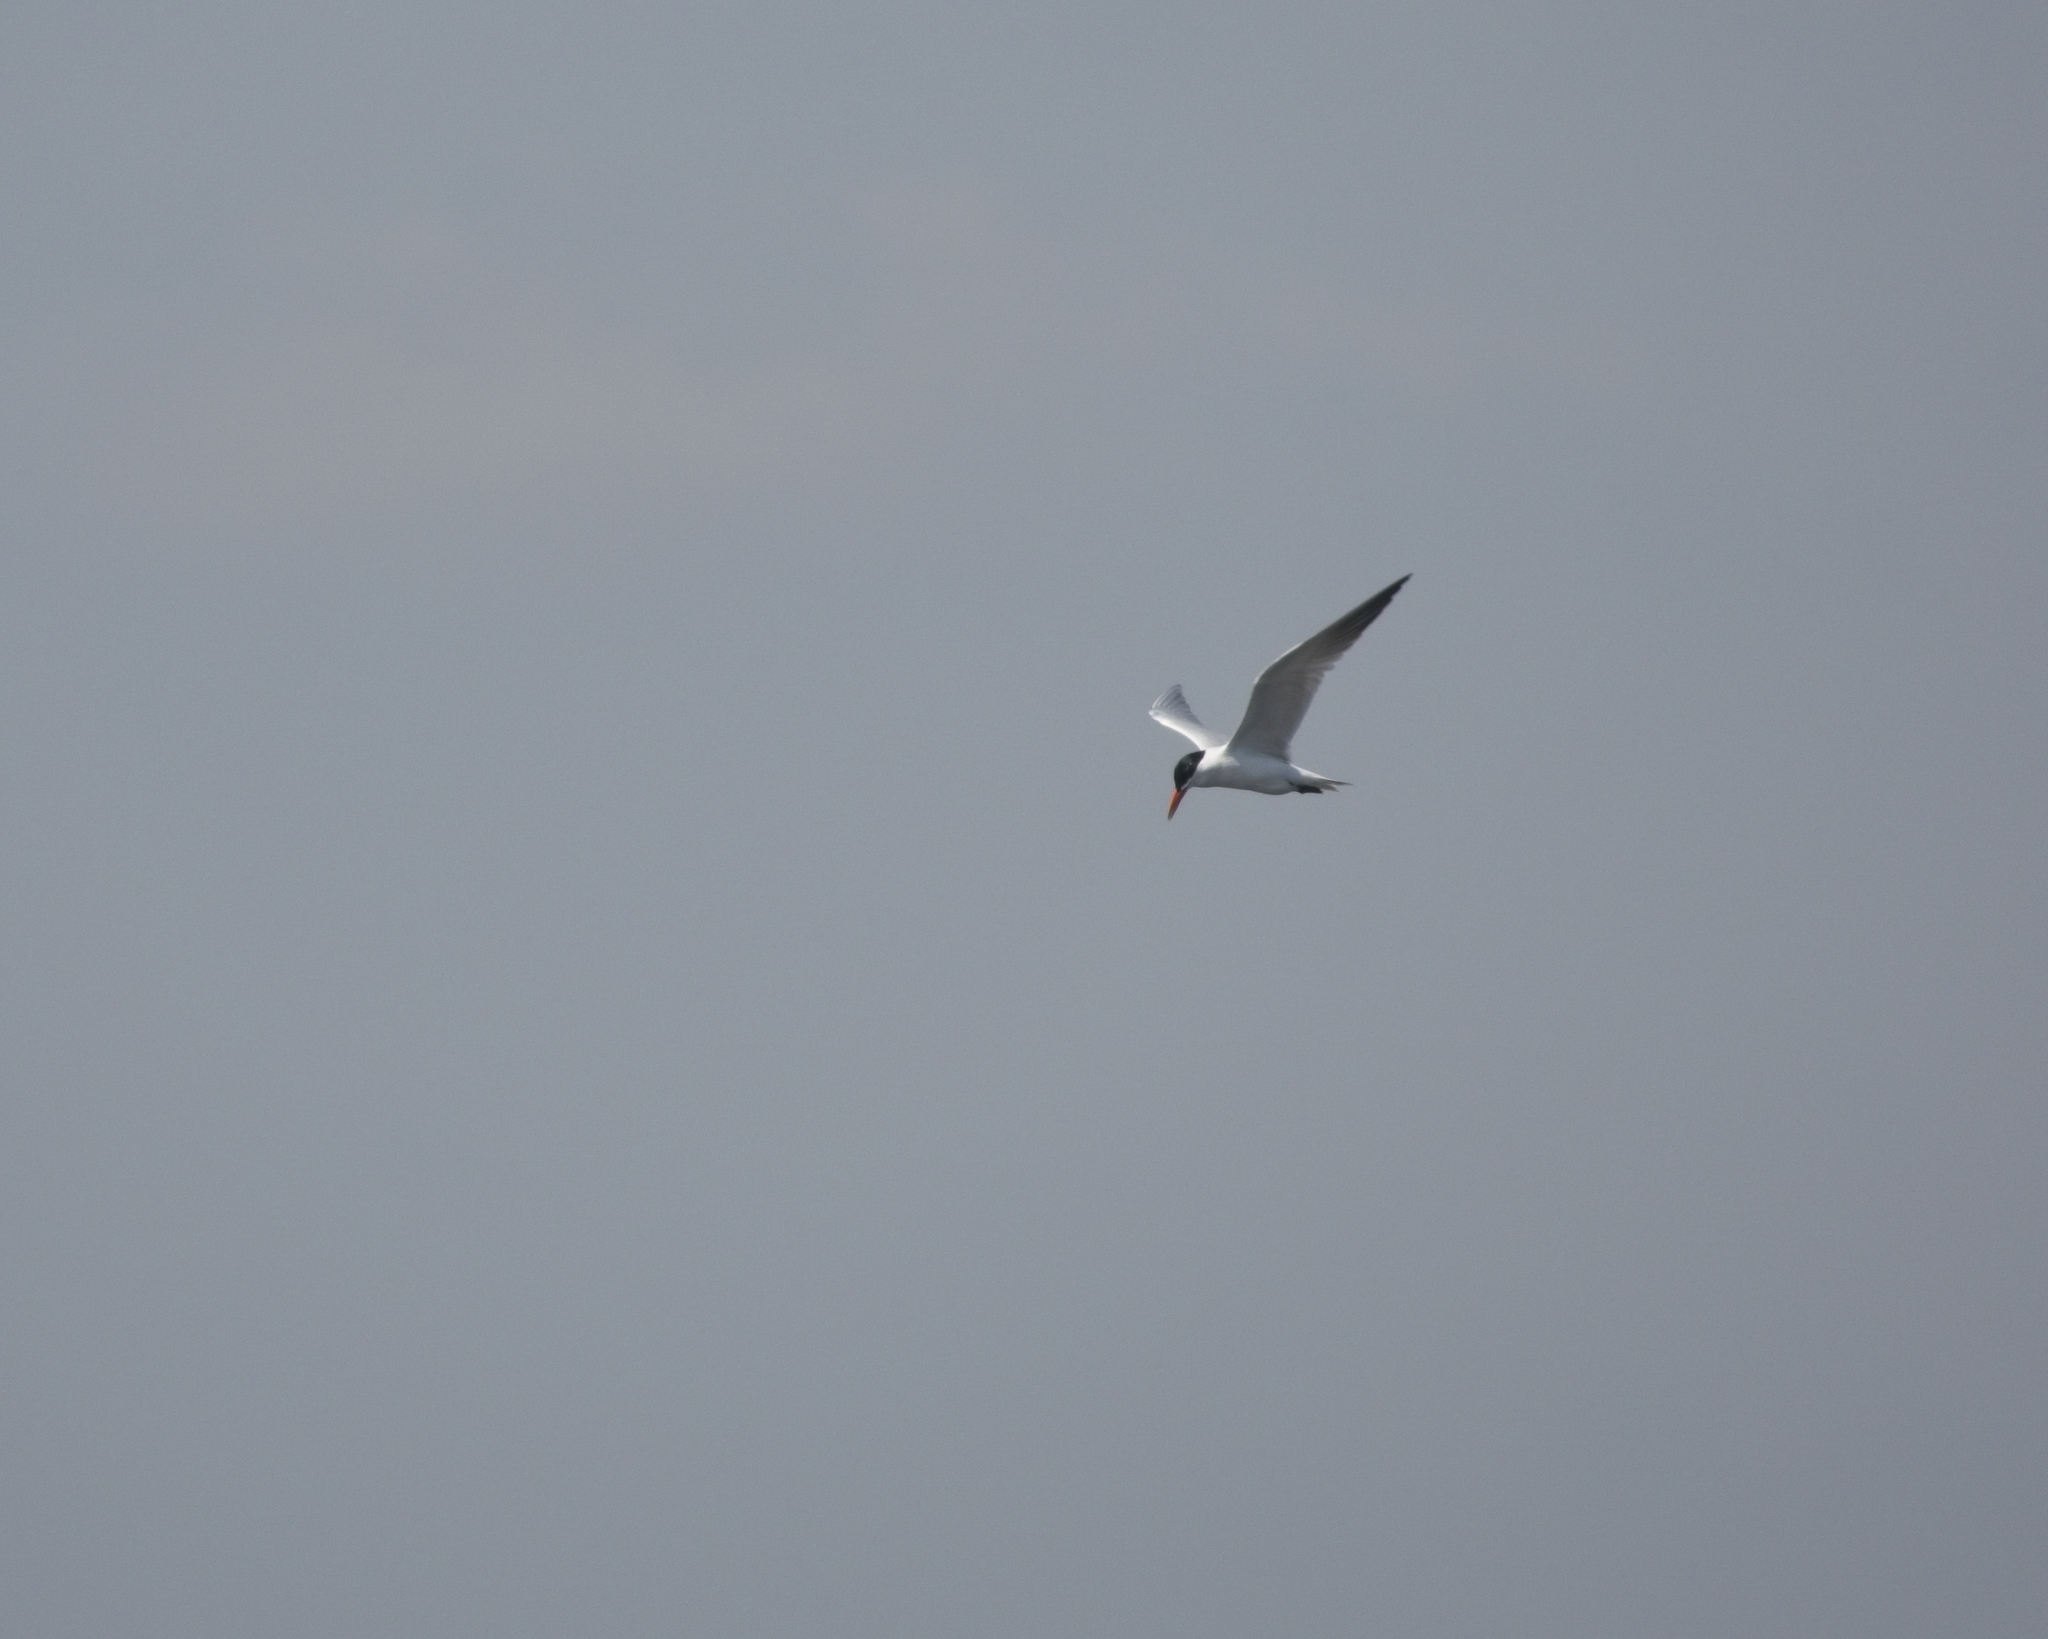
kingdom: Animalia
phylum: Chordata
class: Aves
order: Charadriiformes
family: Laridae
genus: Hydroprogne
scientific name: Hydroprogne caspia
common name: Caspian tern
